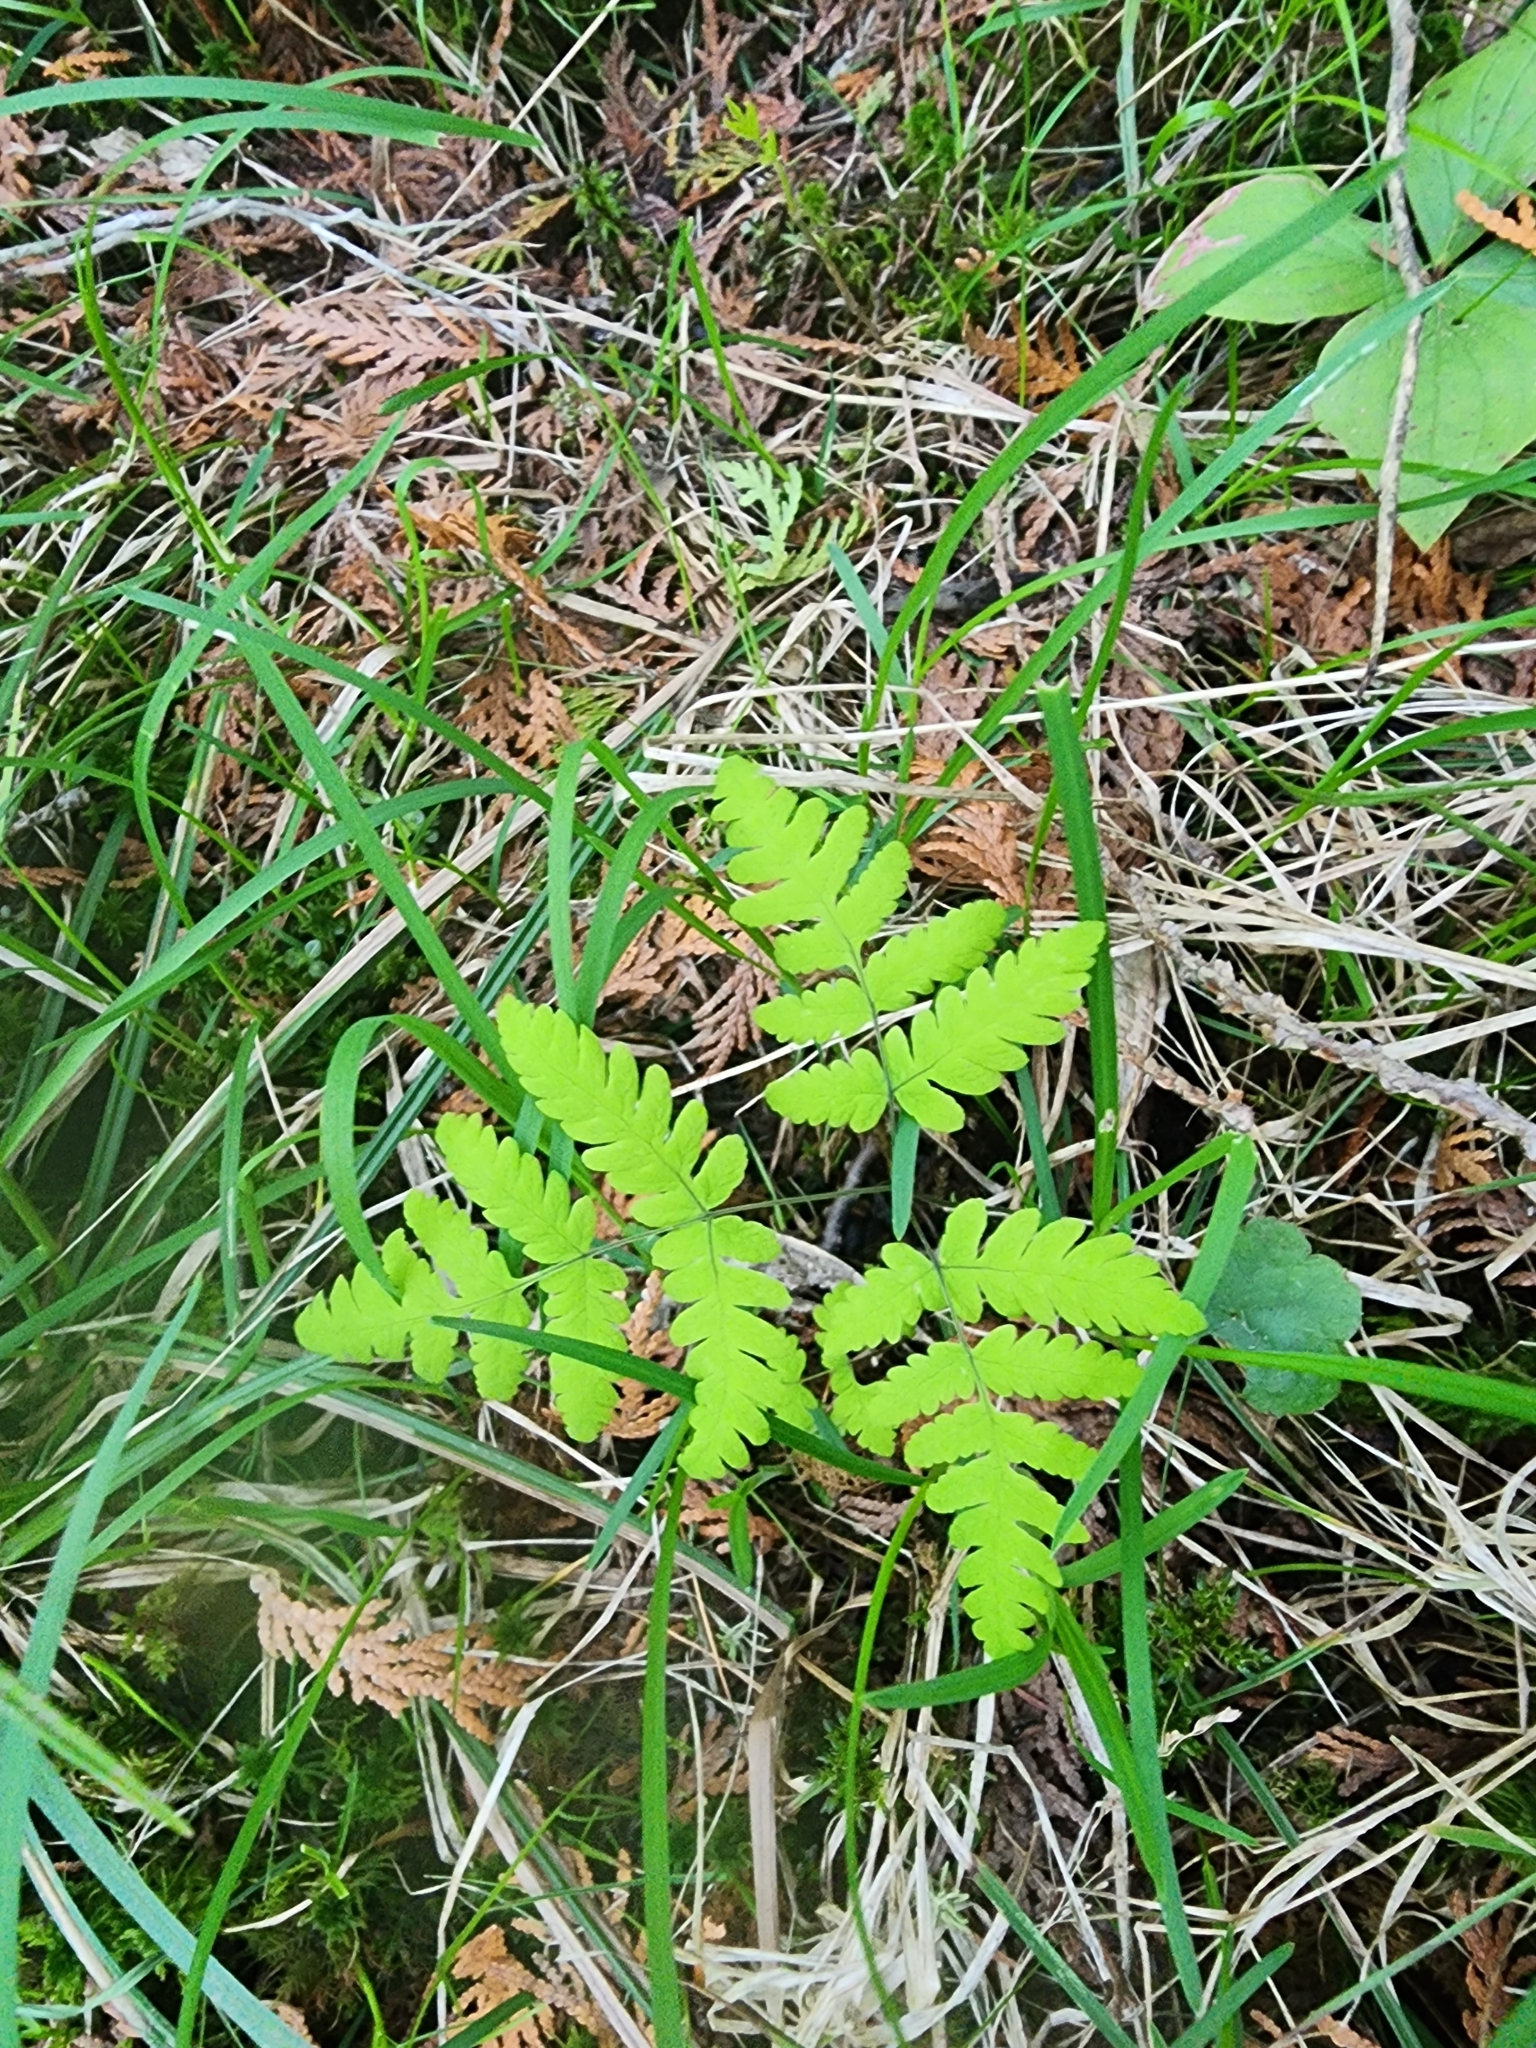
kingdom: Plantae
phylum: Tracheophyta
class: Polypodiopsida
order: Polypodiales
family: Cystopteridaceae
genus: Gymnocarpium
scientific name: Gymnocarpium dryopteris
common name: Oak fern
